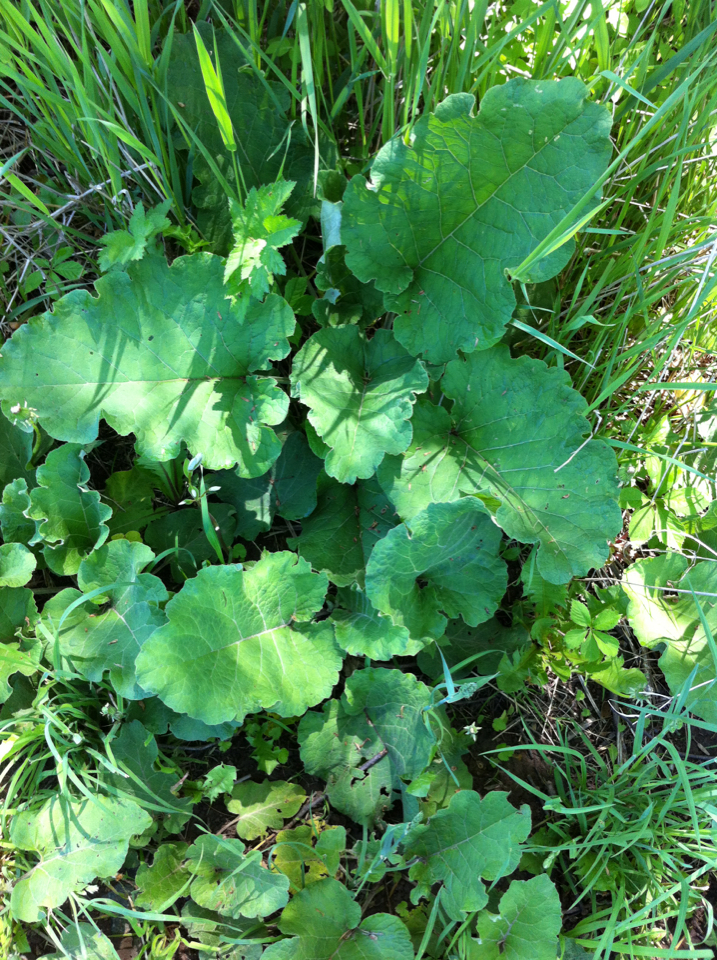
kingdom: Plantae
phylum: Tracheophyta
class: Magnoliopsida
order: Asterales
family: Asteraceae
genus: Arctium
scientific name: Arctium
